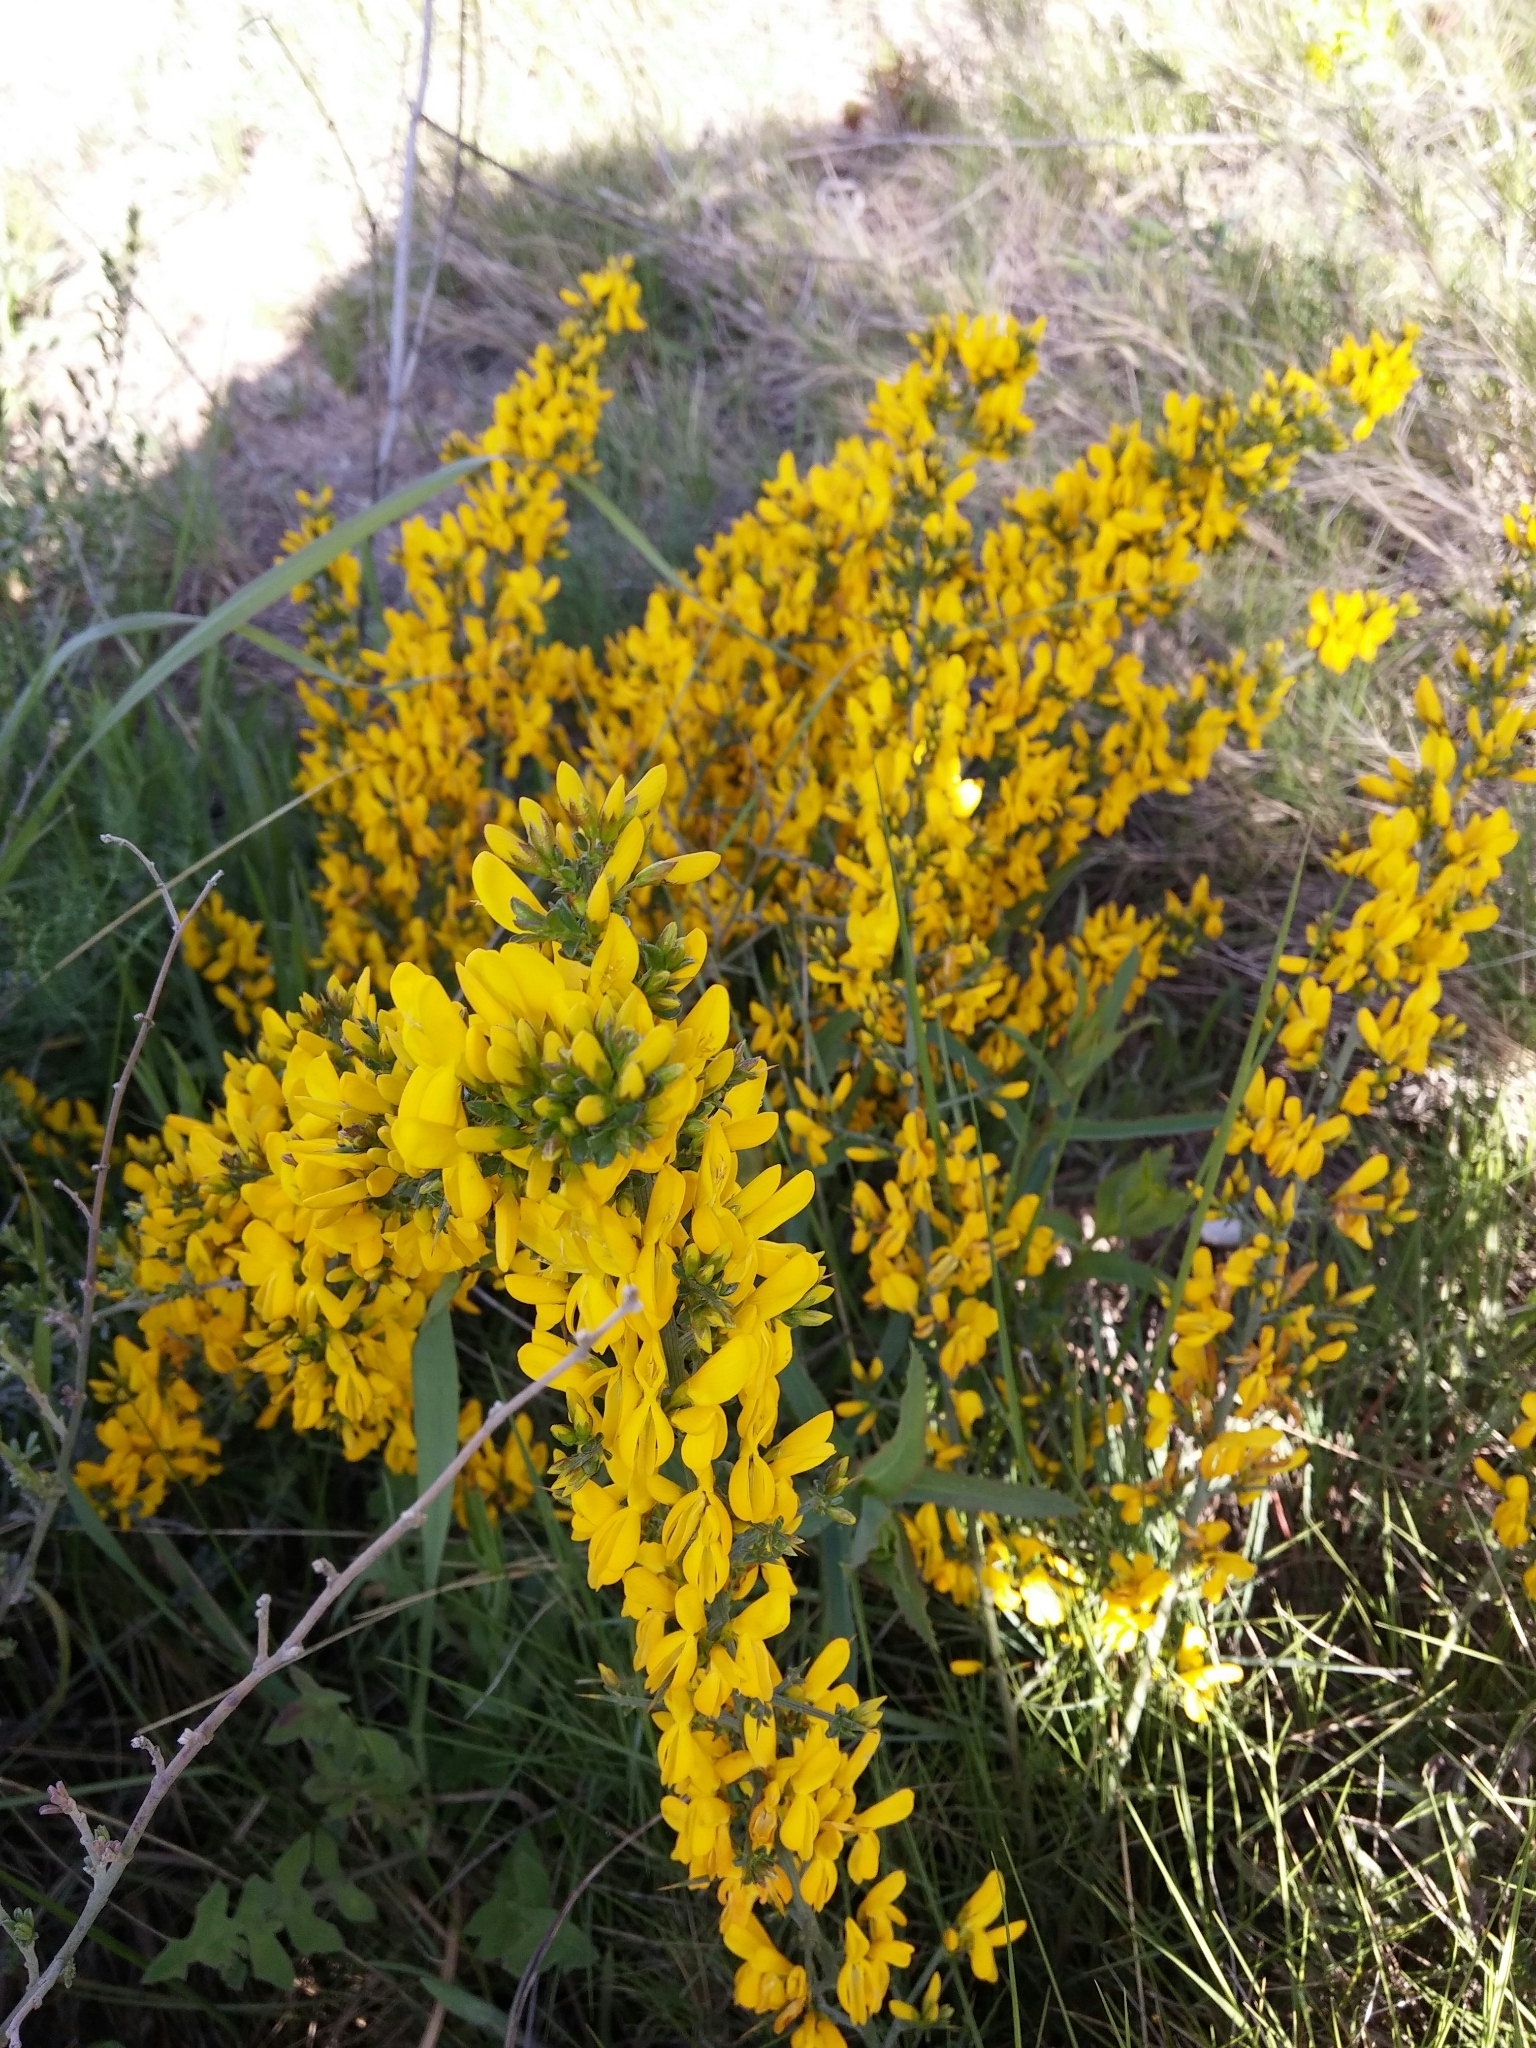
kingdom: Plantae
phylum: Tracheophyta
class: Magnoliopsida
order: Fabales
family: Fabaceae
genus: Genista
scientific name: Genista scorpius
